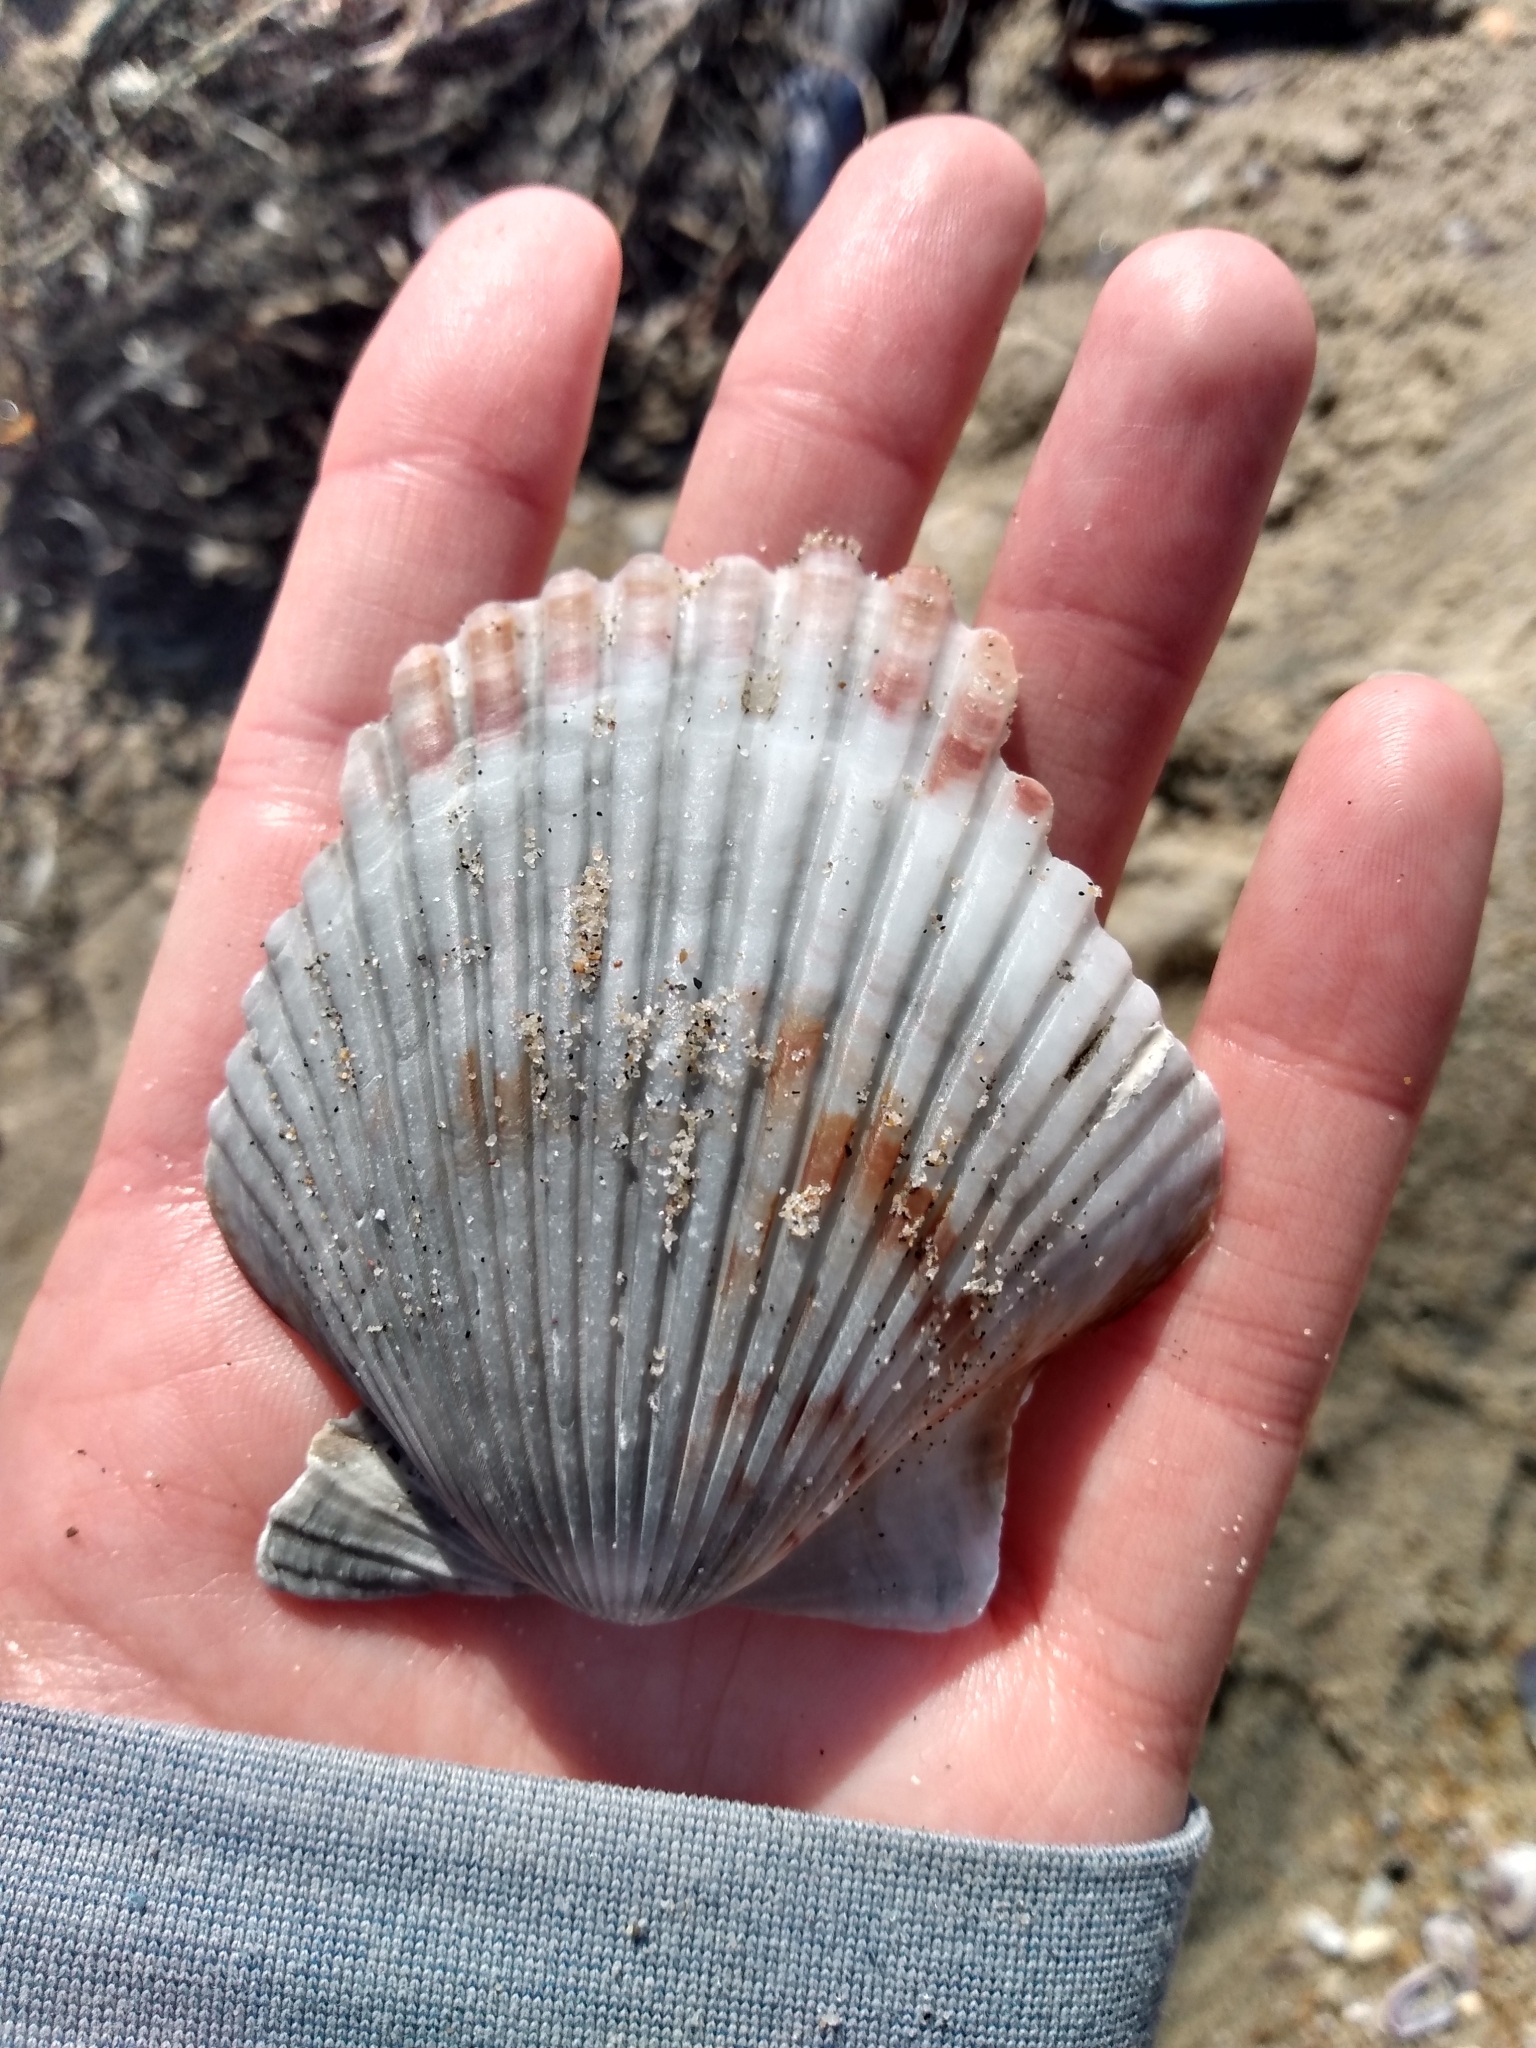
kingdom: Animalia
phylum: Mollusca
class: Bivalvia
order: Pectinida
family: Pectinidae
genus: Argopecten
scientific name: Argopecten ventricosus
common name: Catarina scallop
